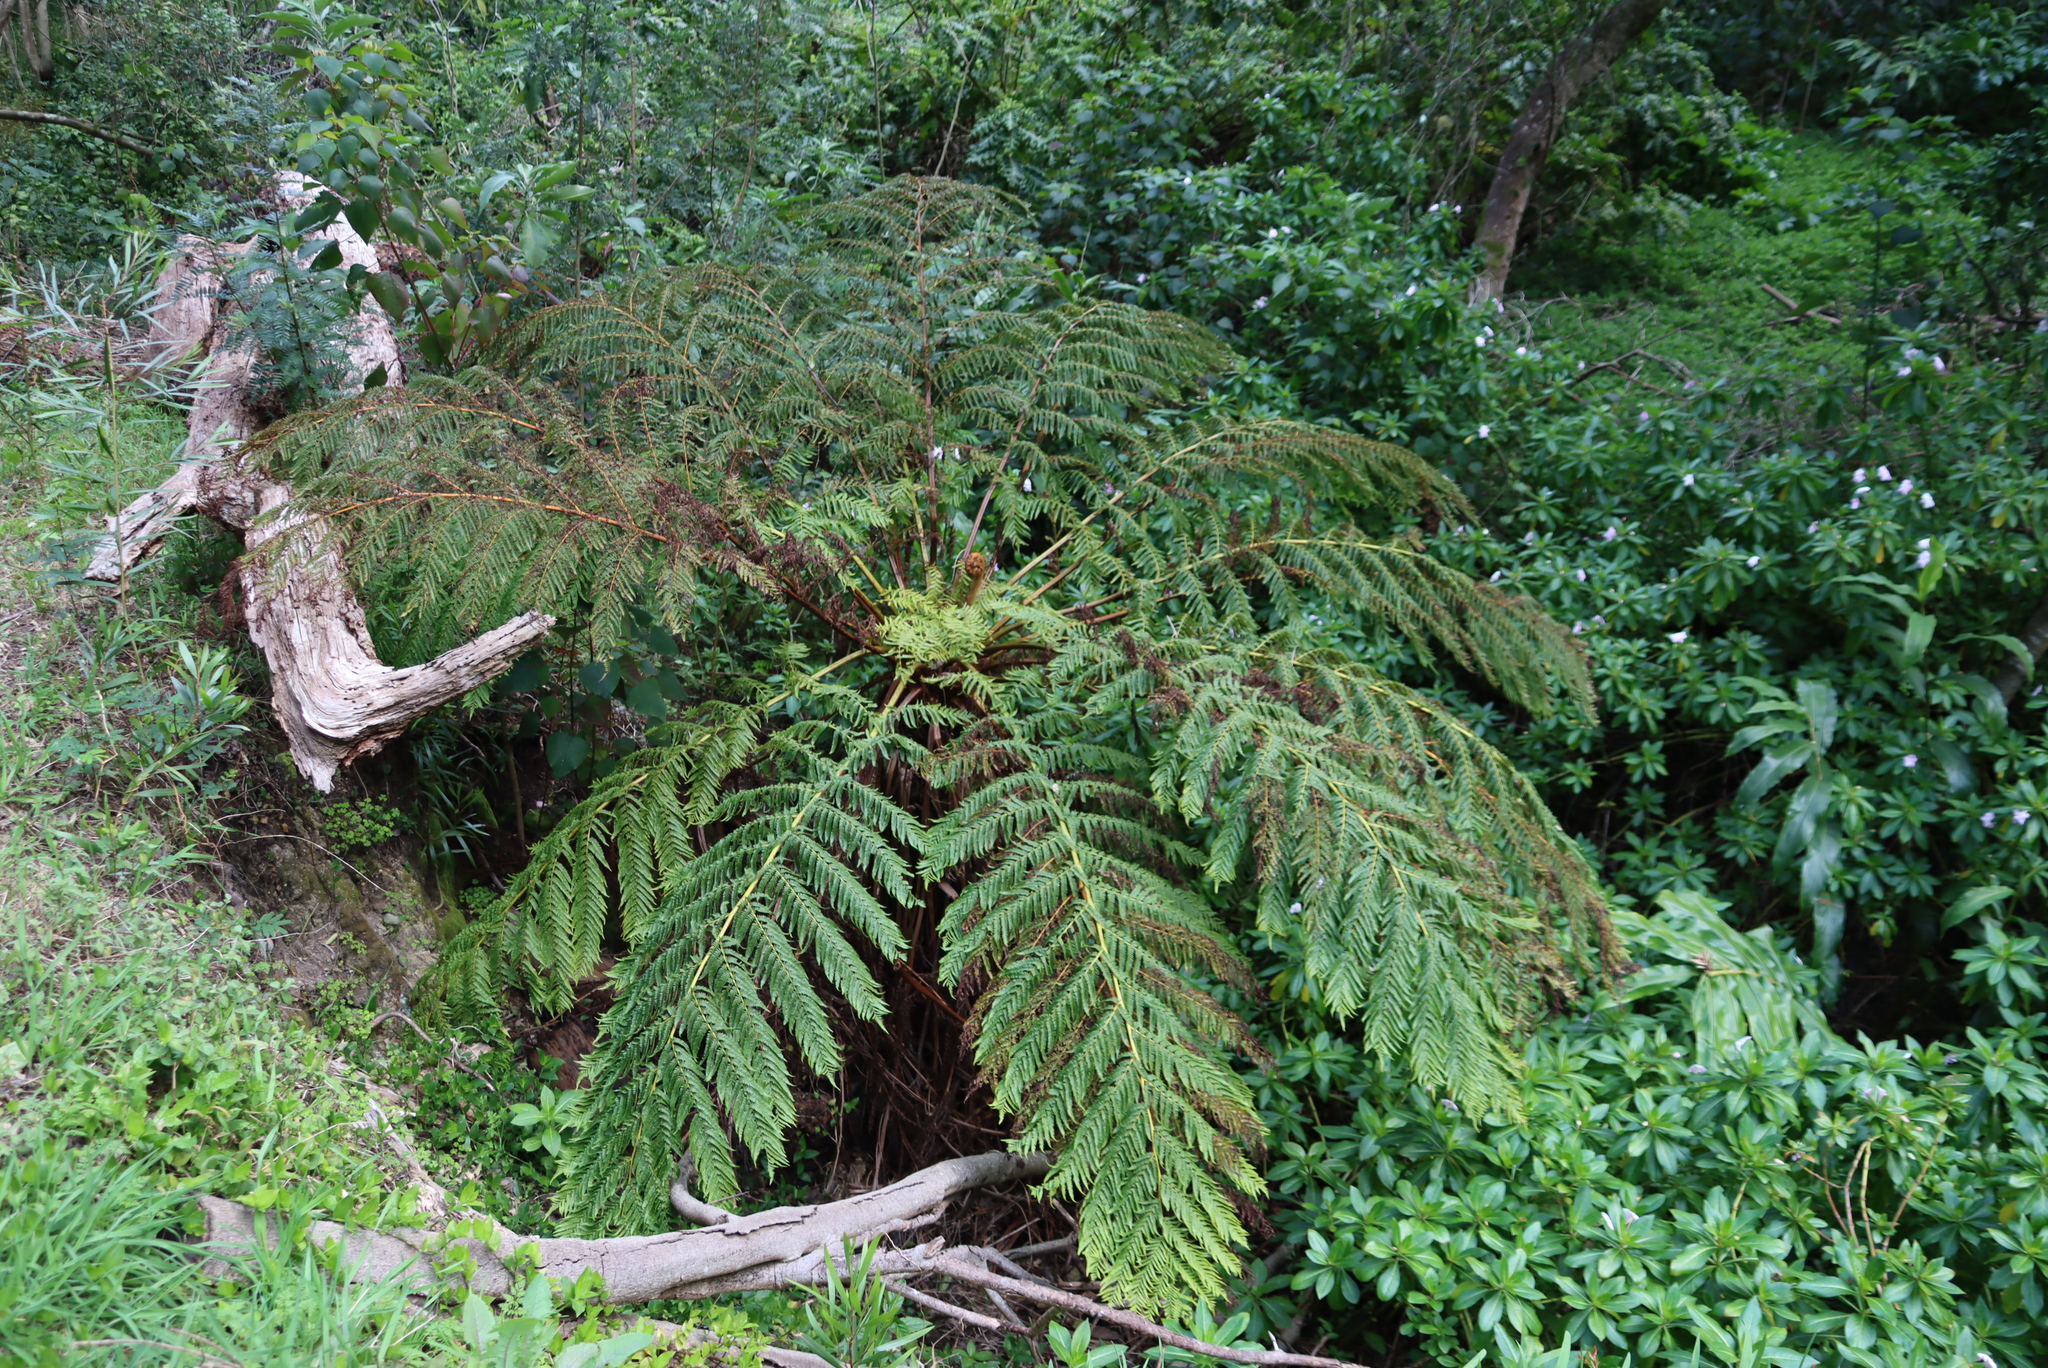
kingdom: Plantae
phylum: Tracheophyta
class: Polypodiopsida
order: Cyatheales
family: Cyatheaceae
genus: Sphaeropteris
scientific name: Sphaeropteris cooperi
